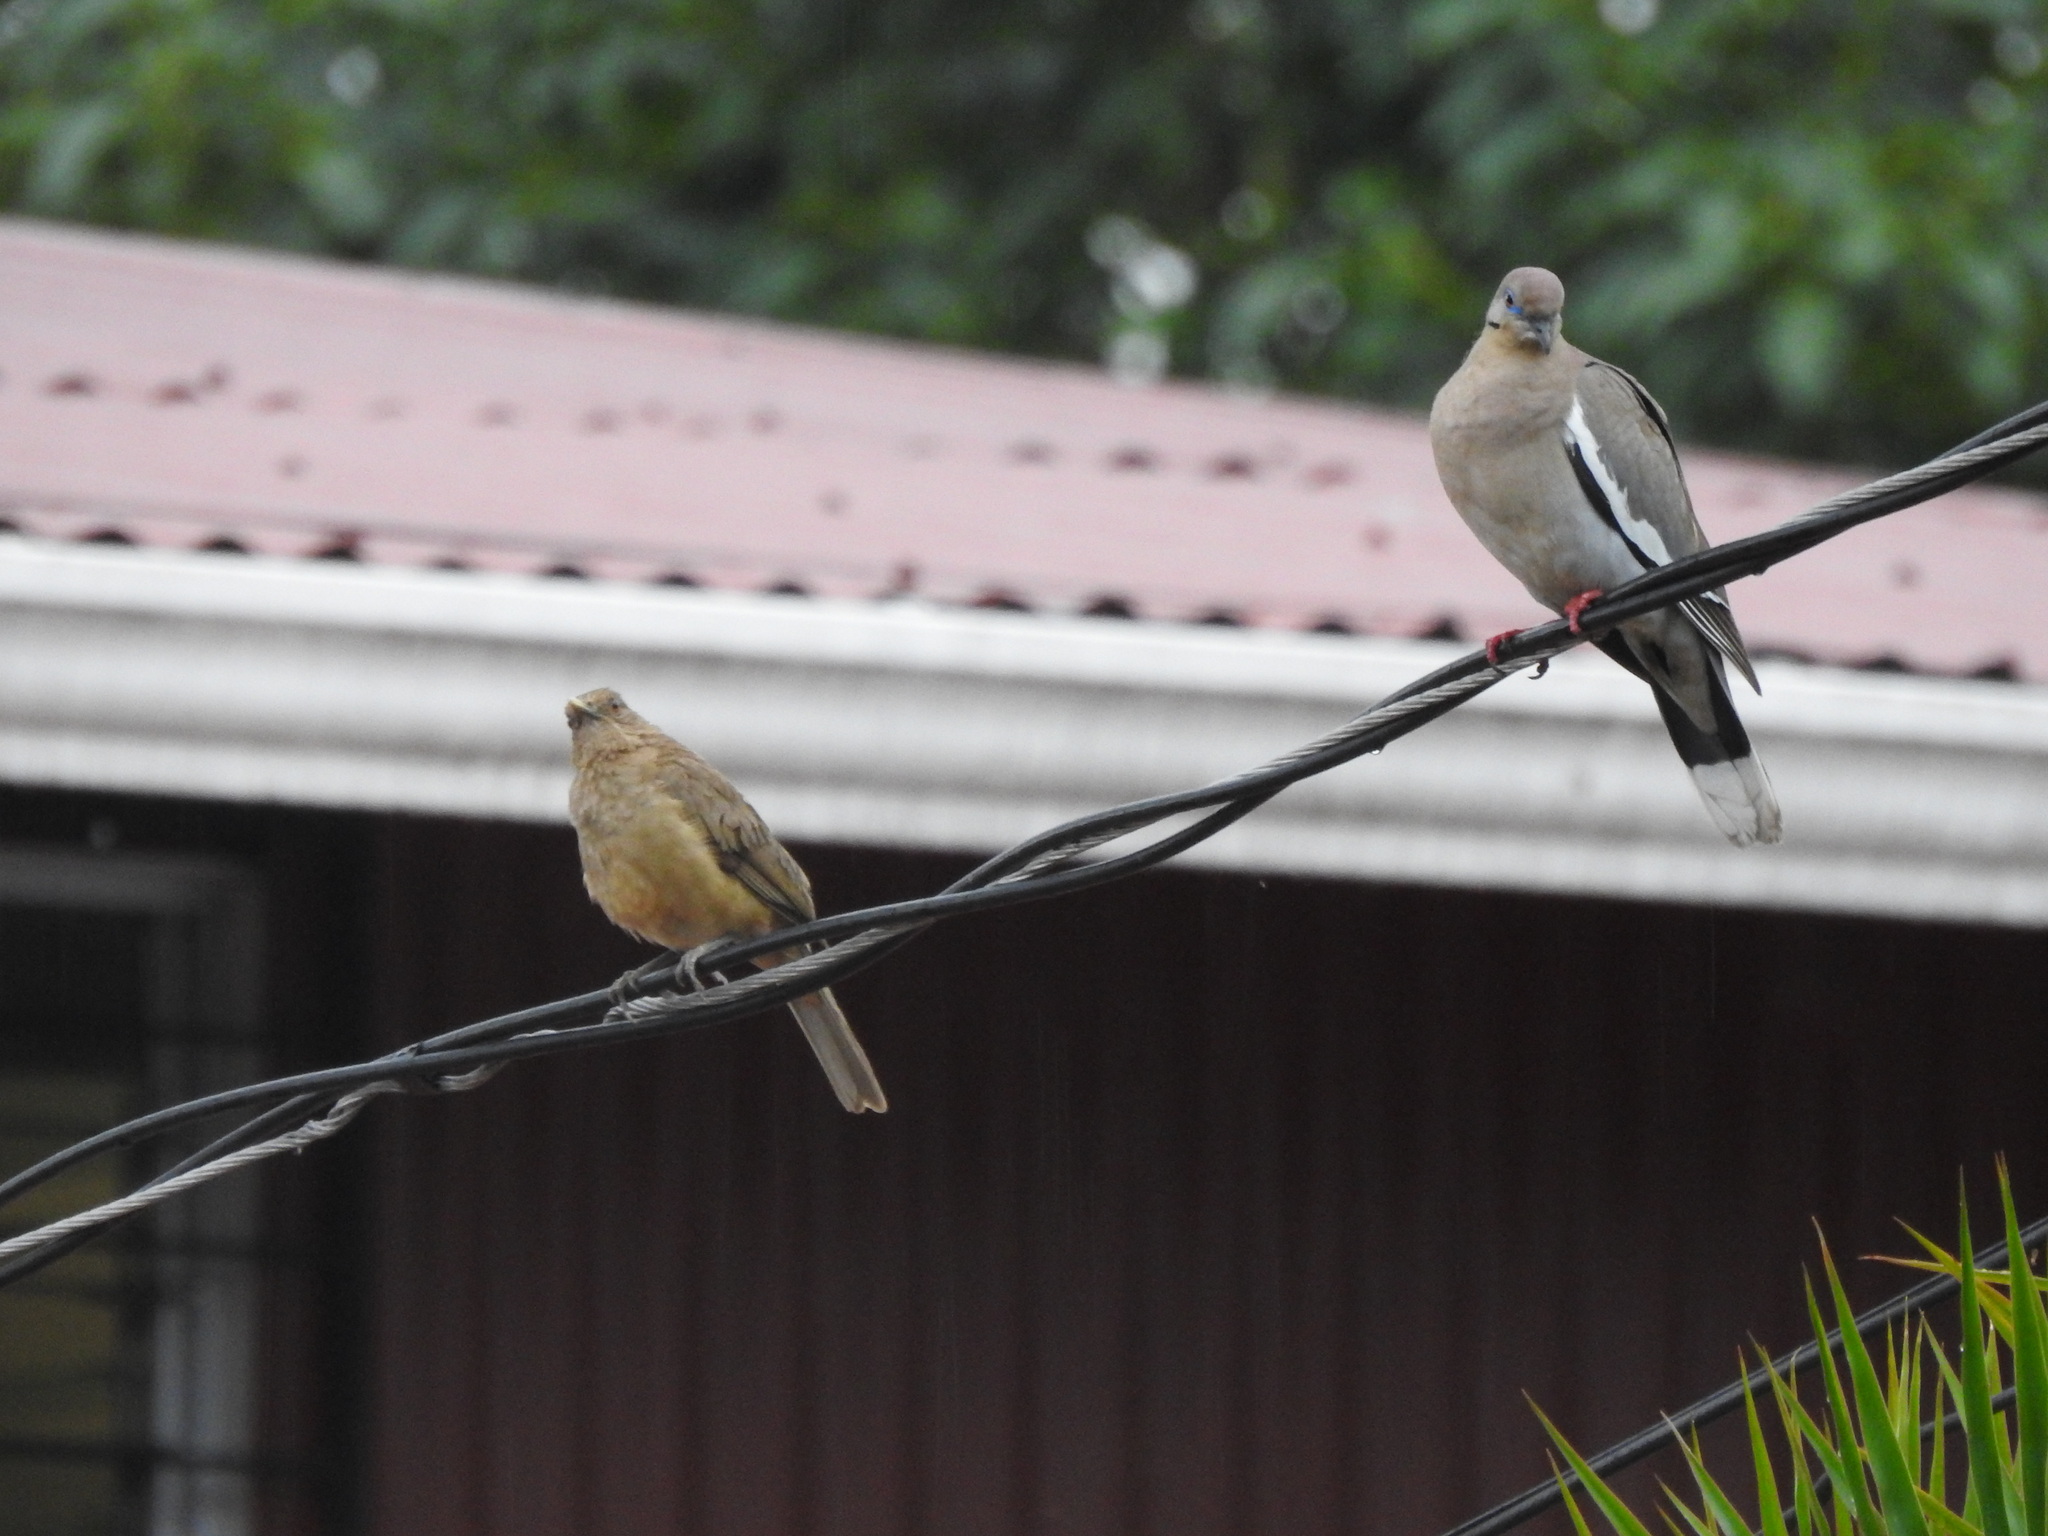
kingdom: Animalia
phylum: Chordata
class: Aves
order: Passeriformes
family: Turdidae
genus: Turdus
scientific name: Turdus grayi
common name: Clay-colored thrush
